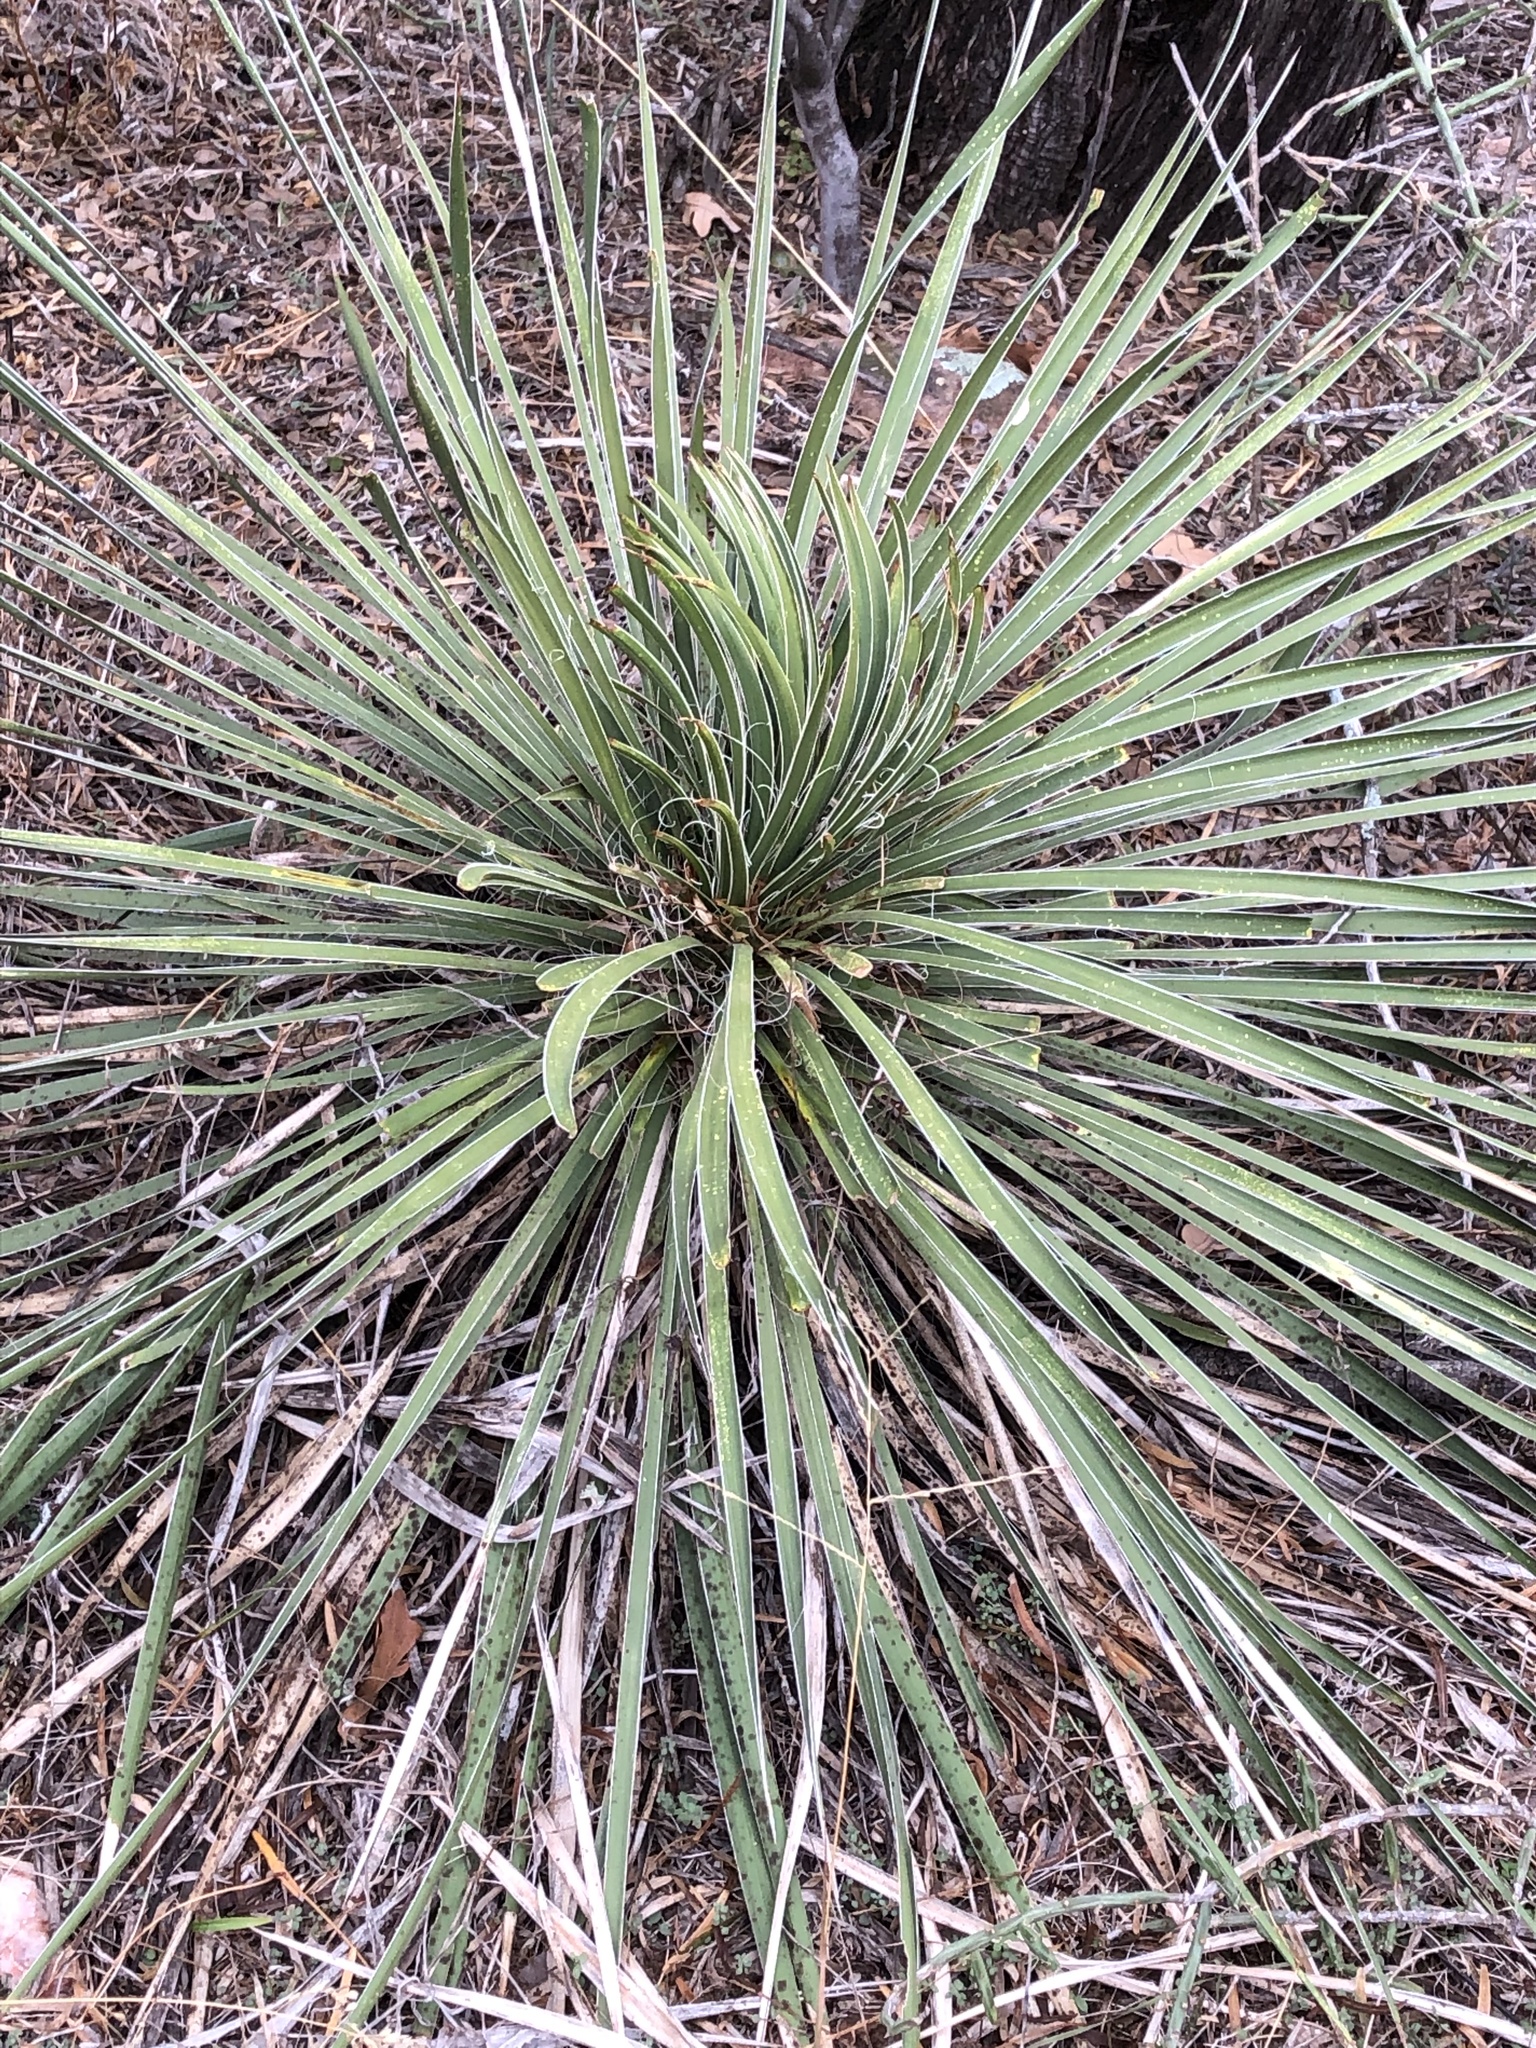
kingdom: Plantae
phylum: Tracheophyta
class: Liliopsida
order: Asparagales
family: Asparagaceae
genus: Yucca
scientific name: Yucca constricta
